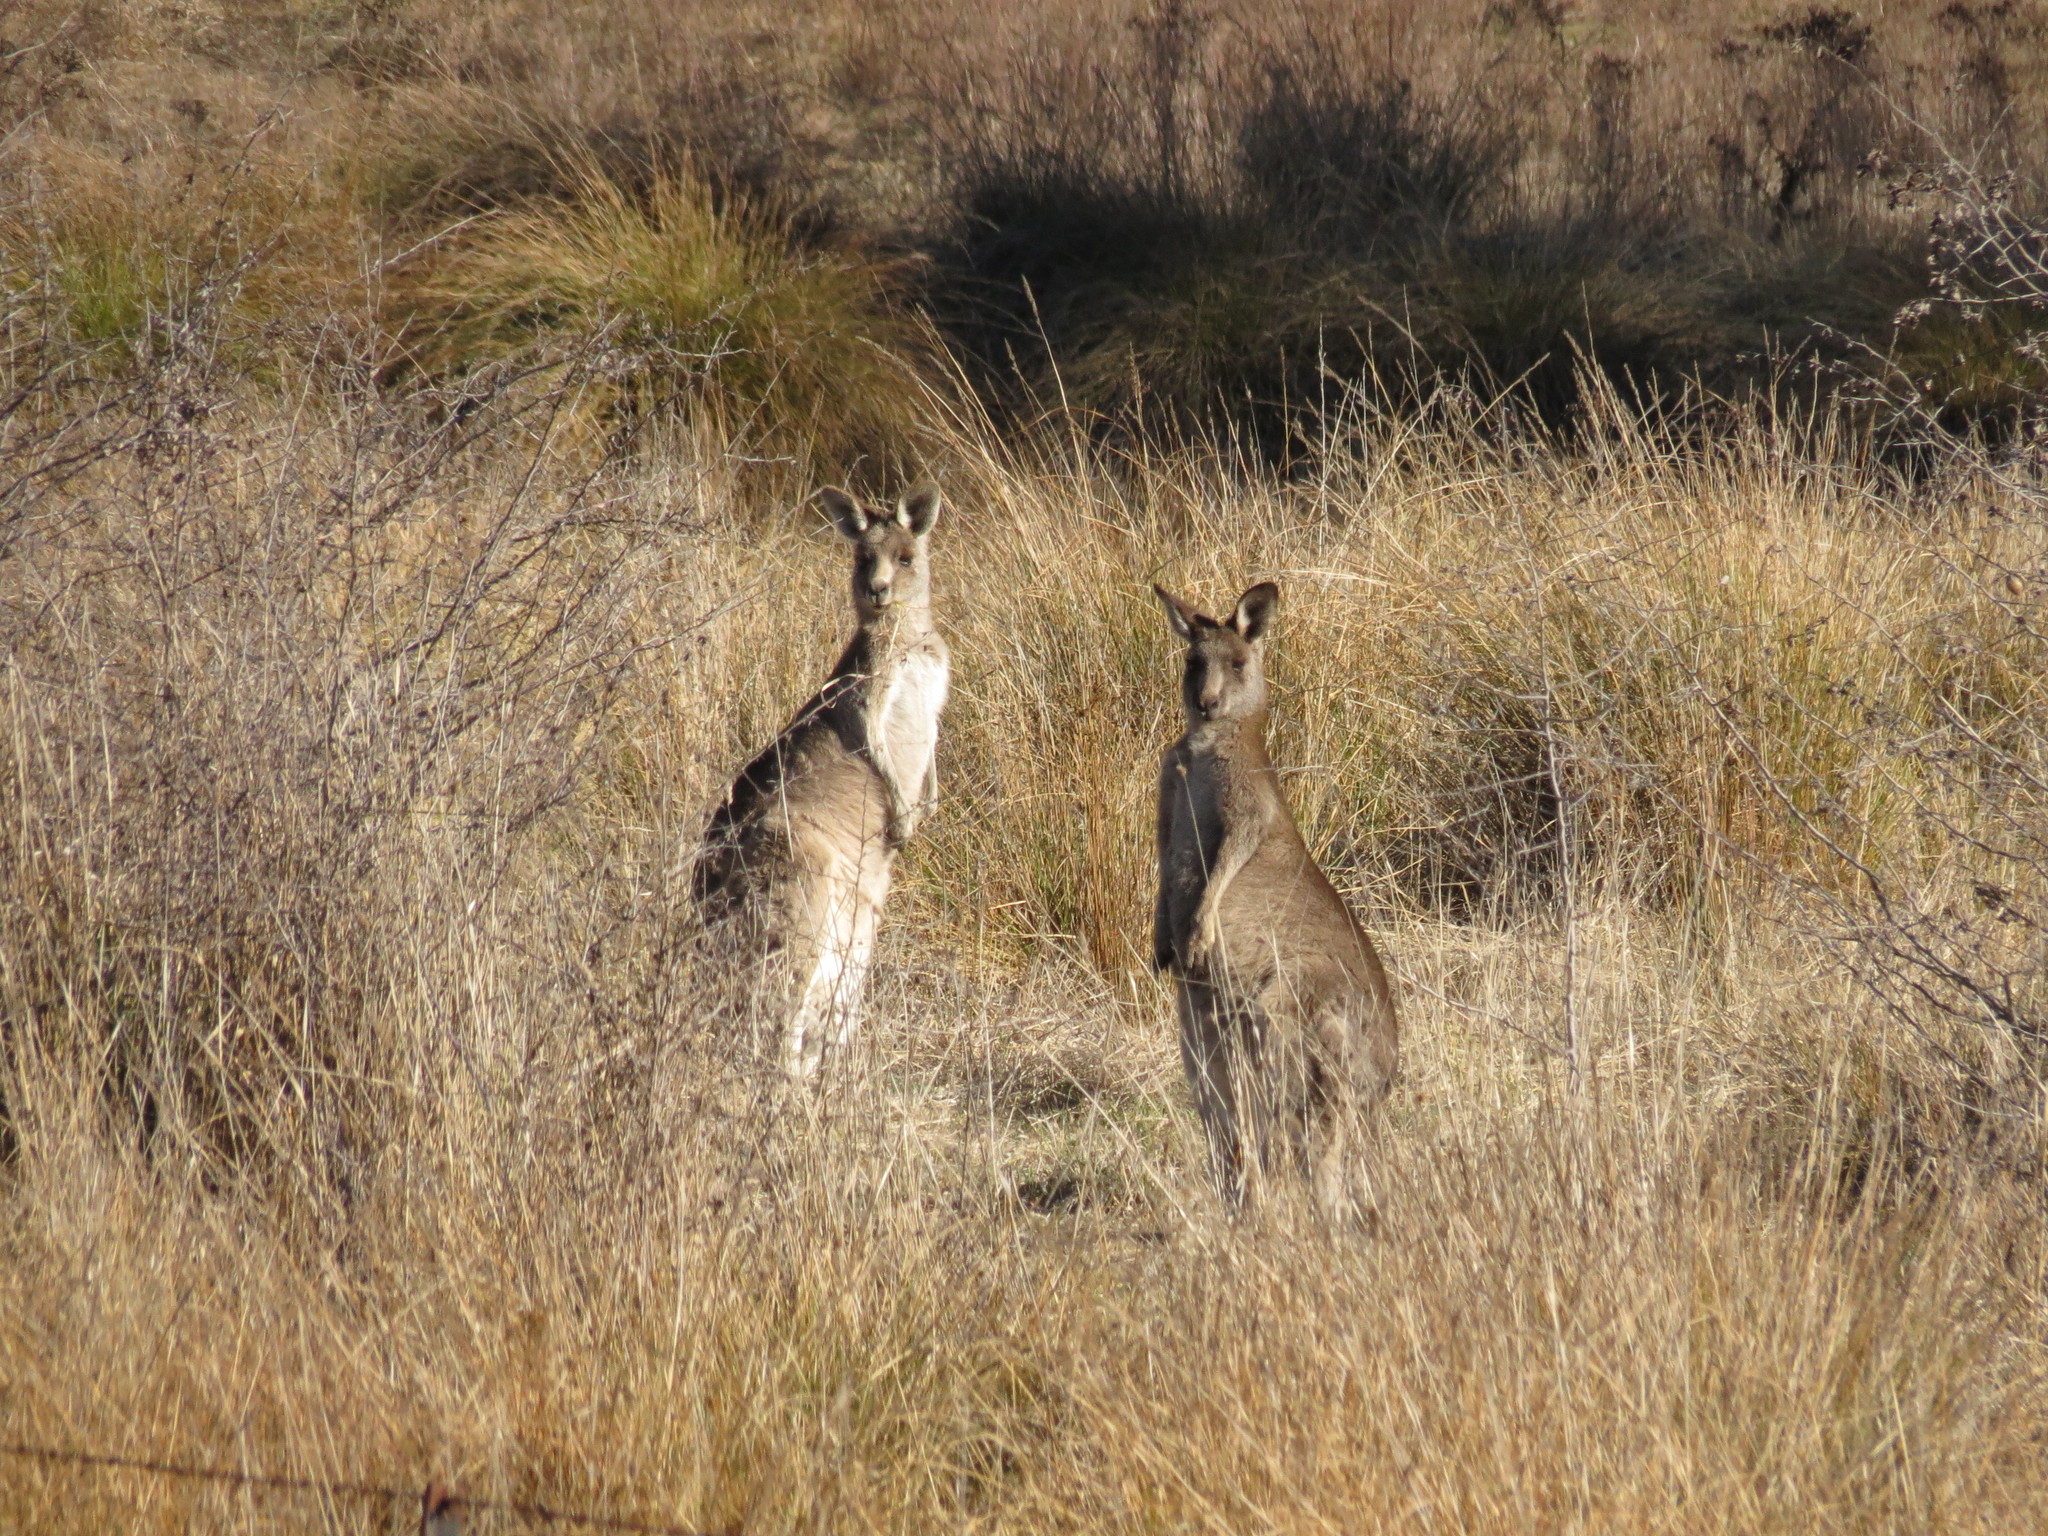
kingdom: Animalia
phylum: Chordata
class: Mammalia
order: Diprotodontia
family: Macropodidae
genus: Macropus
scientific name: Macropus giganteus
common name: Eastern grey kangaroo
